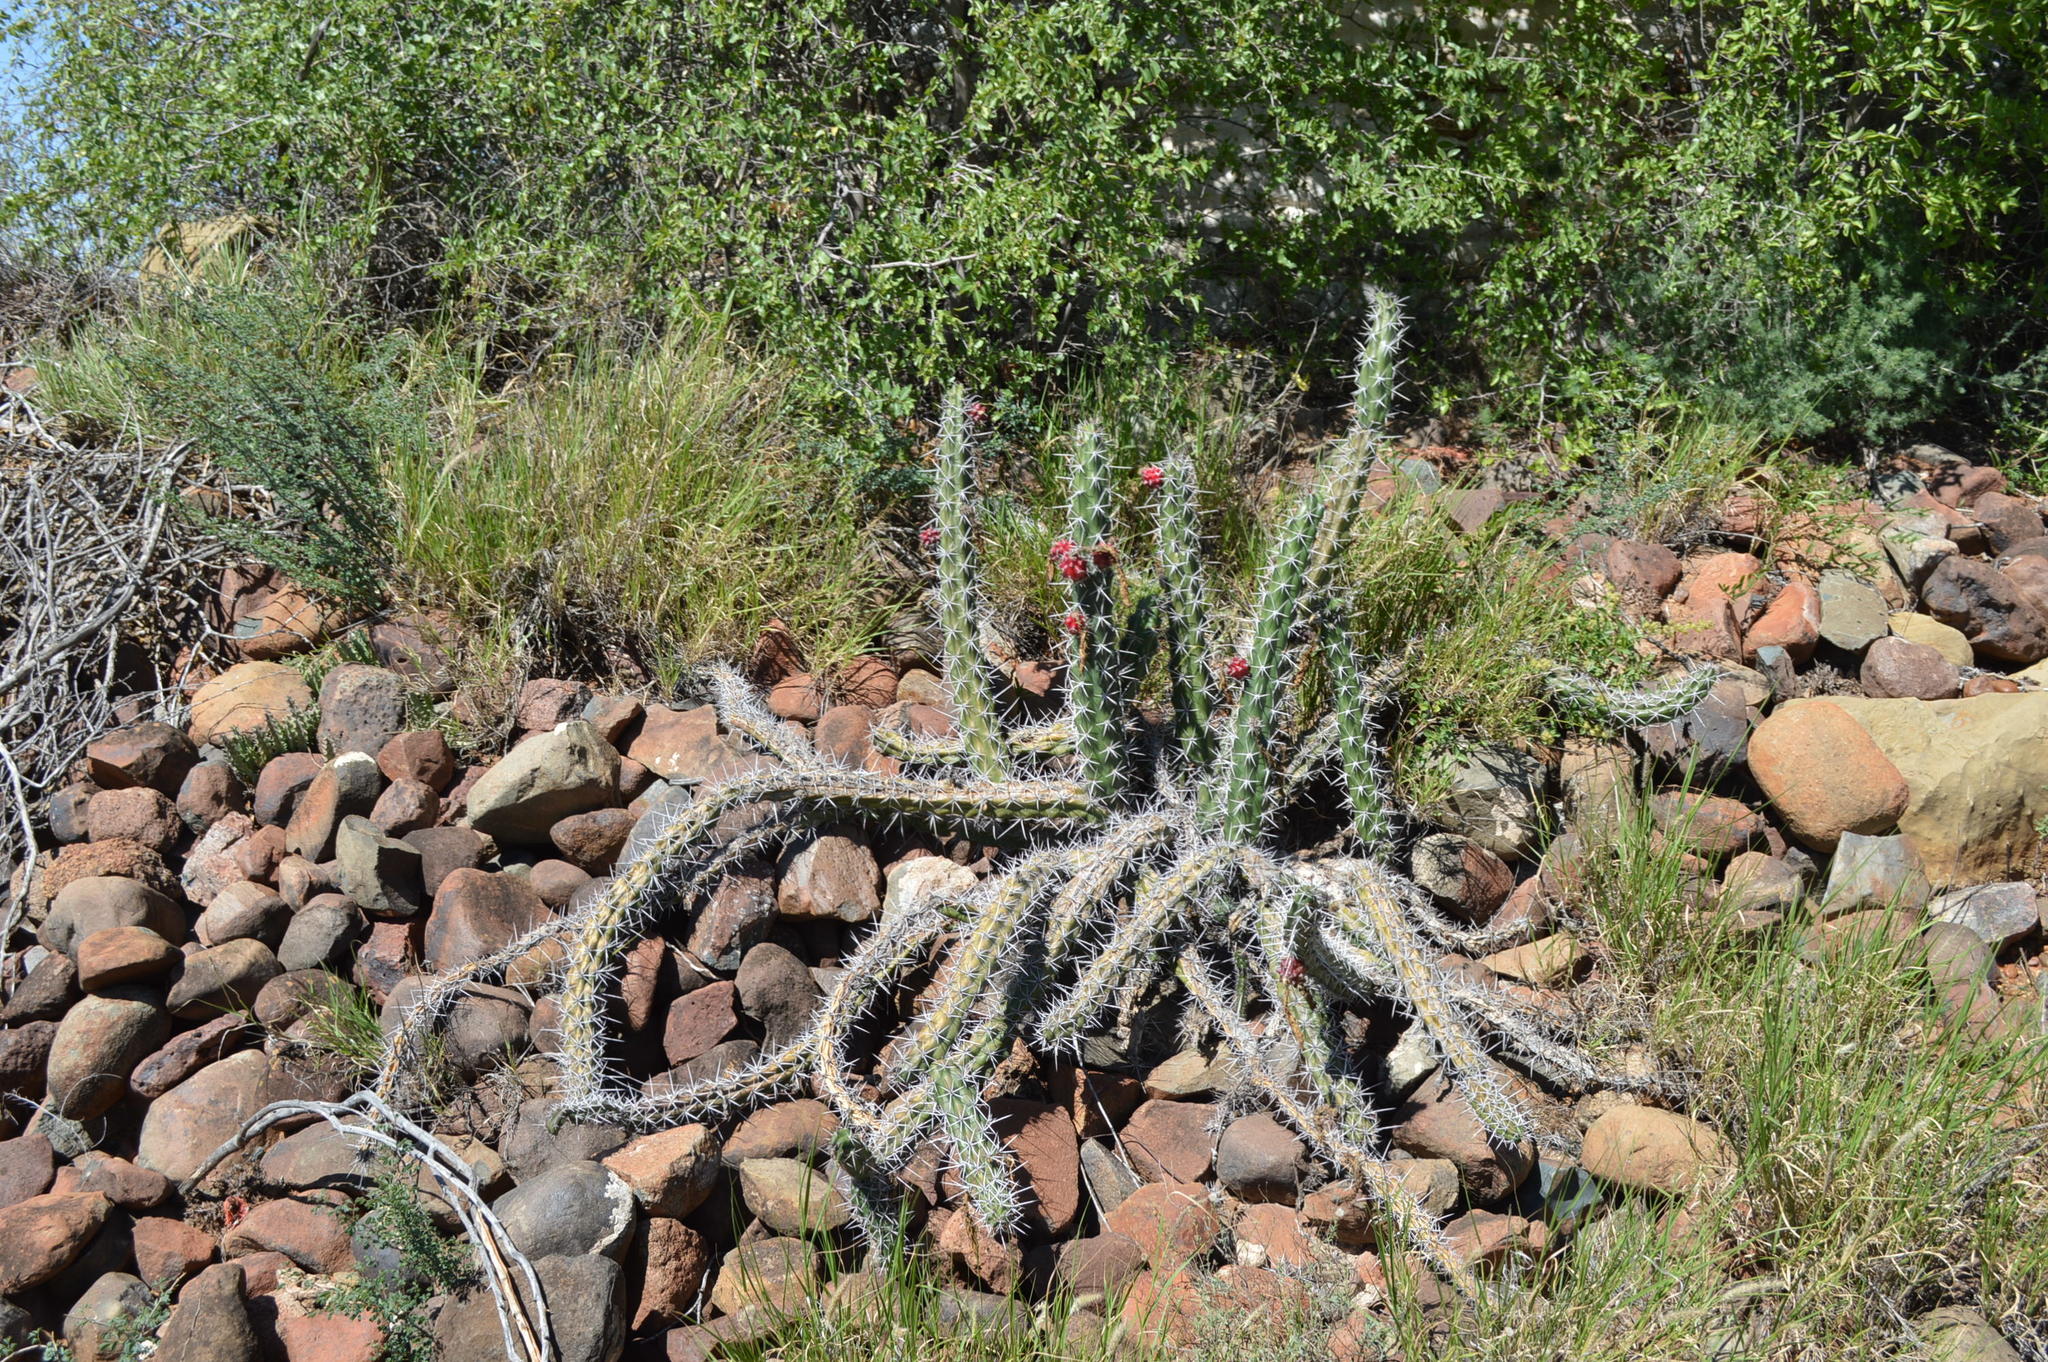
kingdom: Plantae
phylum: Tracheophyta
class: Magnoliopsida
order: Caryophyllales
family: Cactaceae
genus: Harrisia
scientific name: Harrisia tortuosa
